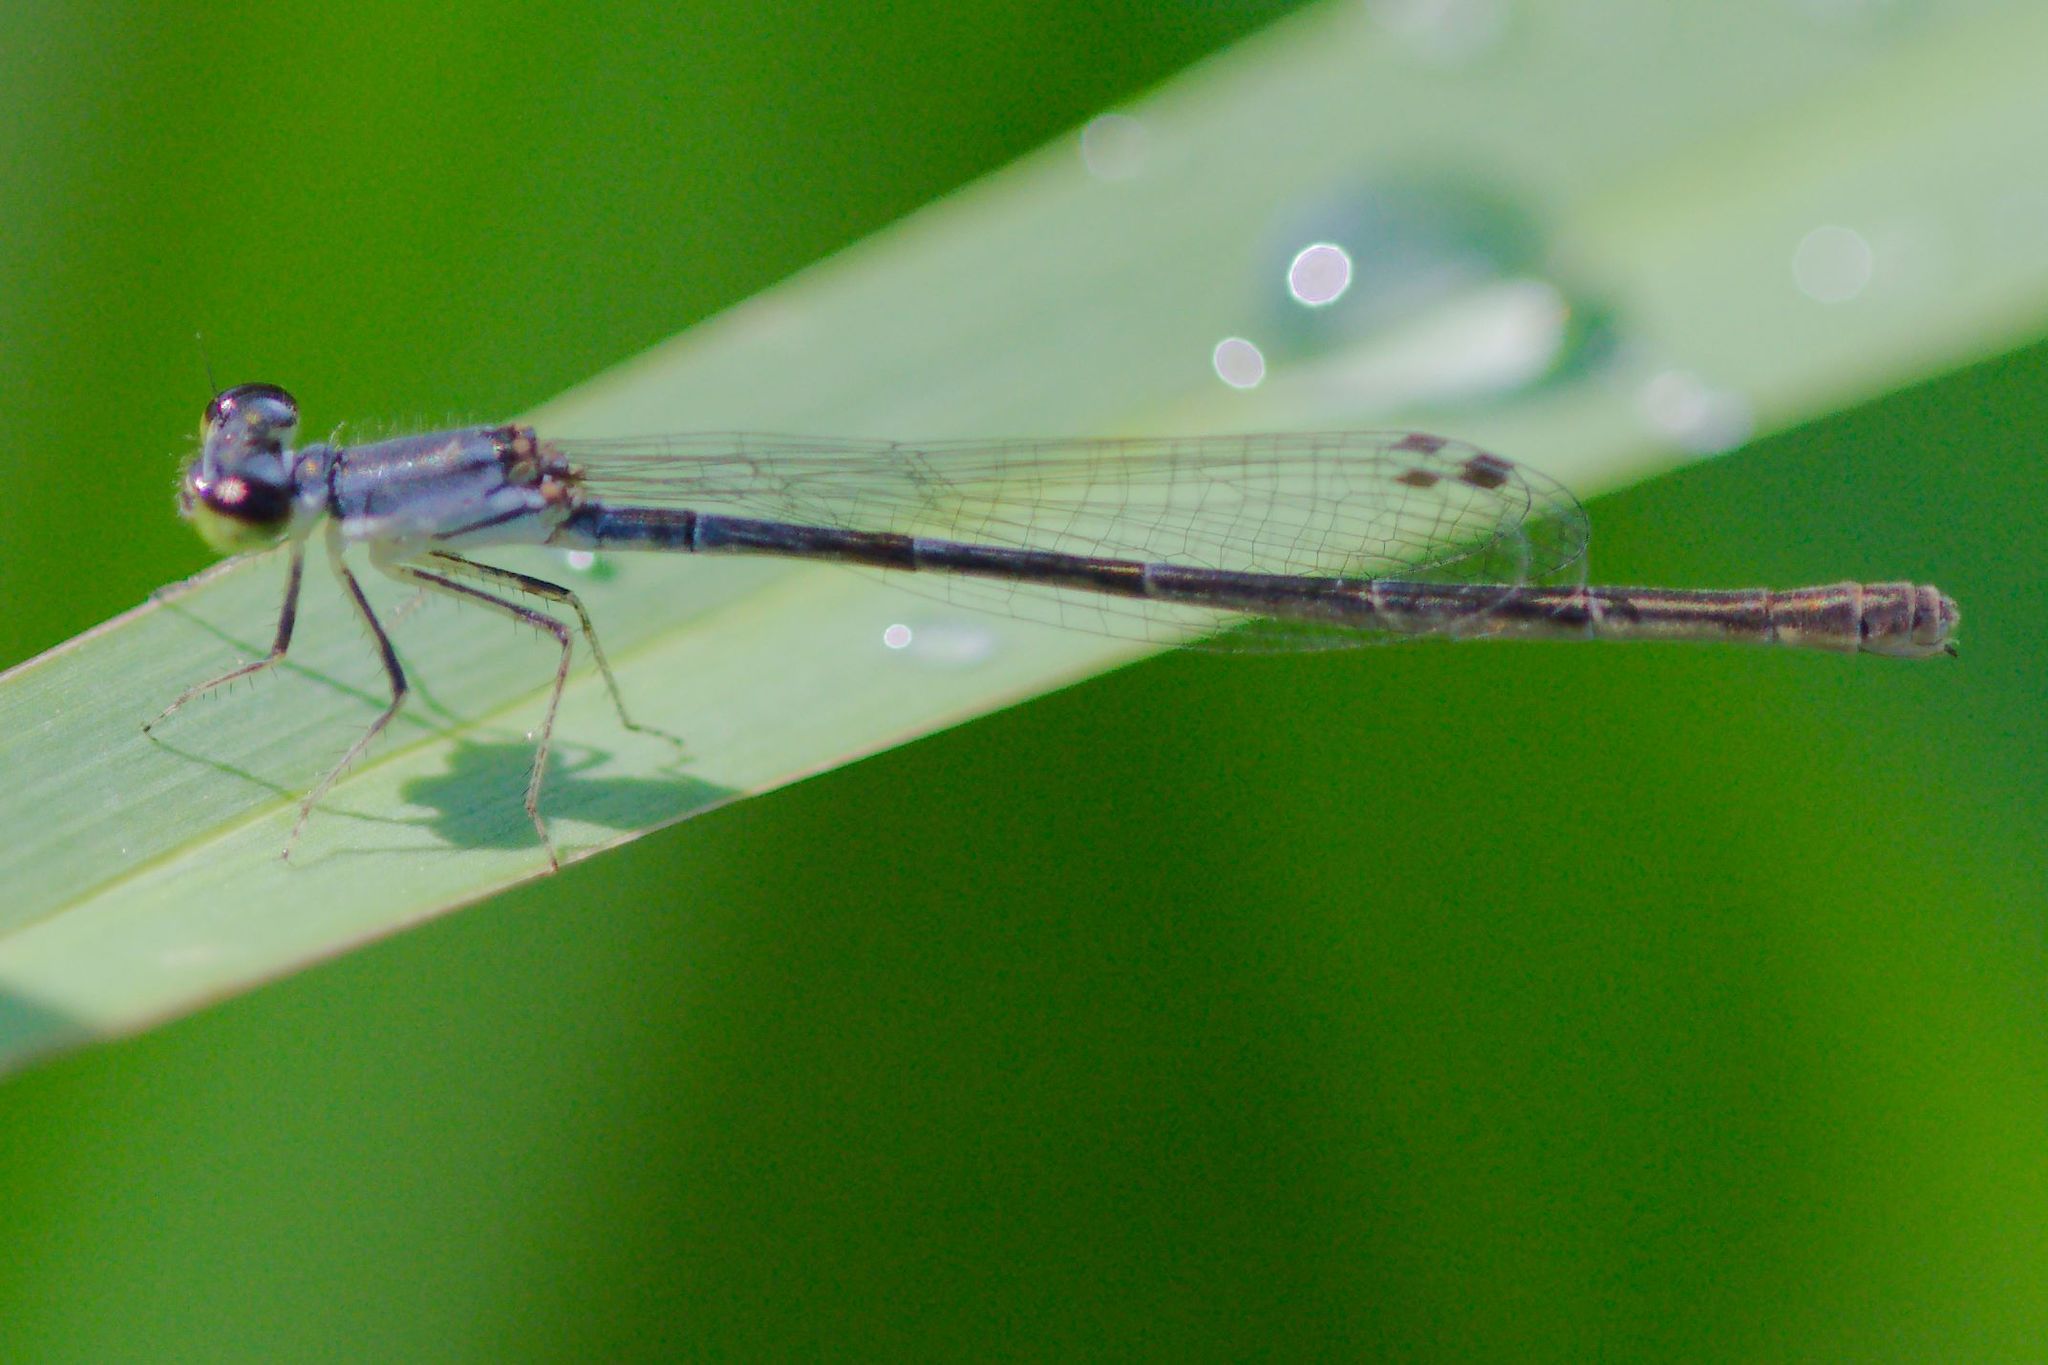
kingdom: Animalia
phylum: Arthropoda
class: Insecta
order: Odonata
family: Coenagrionidae
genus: Ischnura
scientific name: Ischnura posita
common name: Fragile forktail
